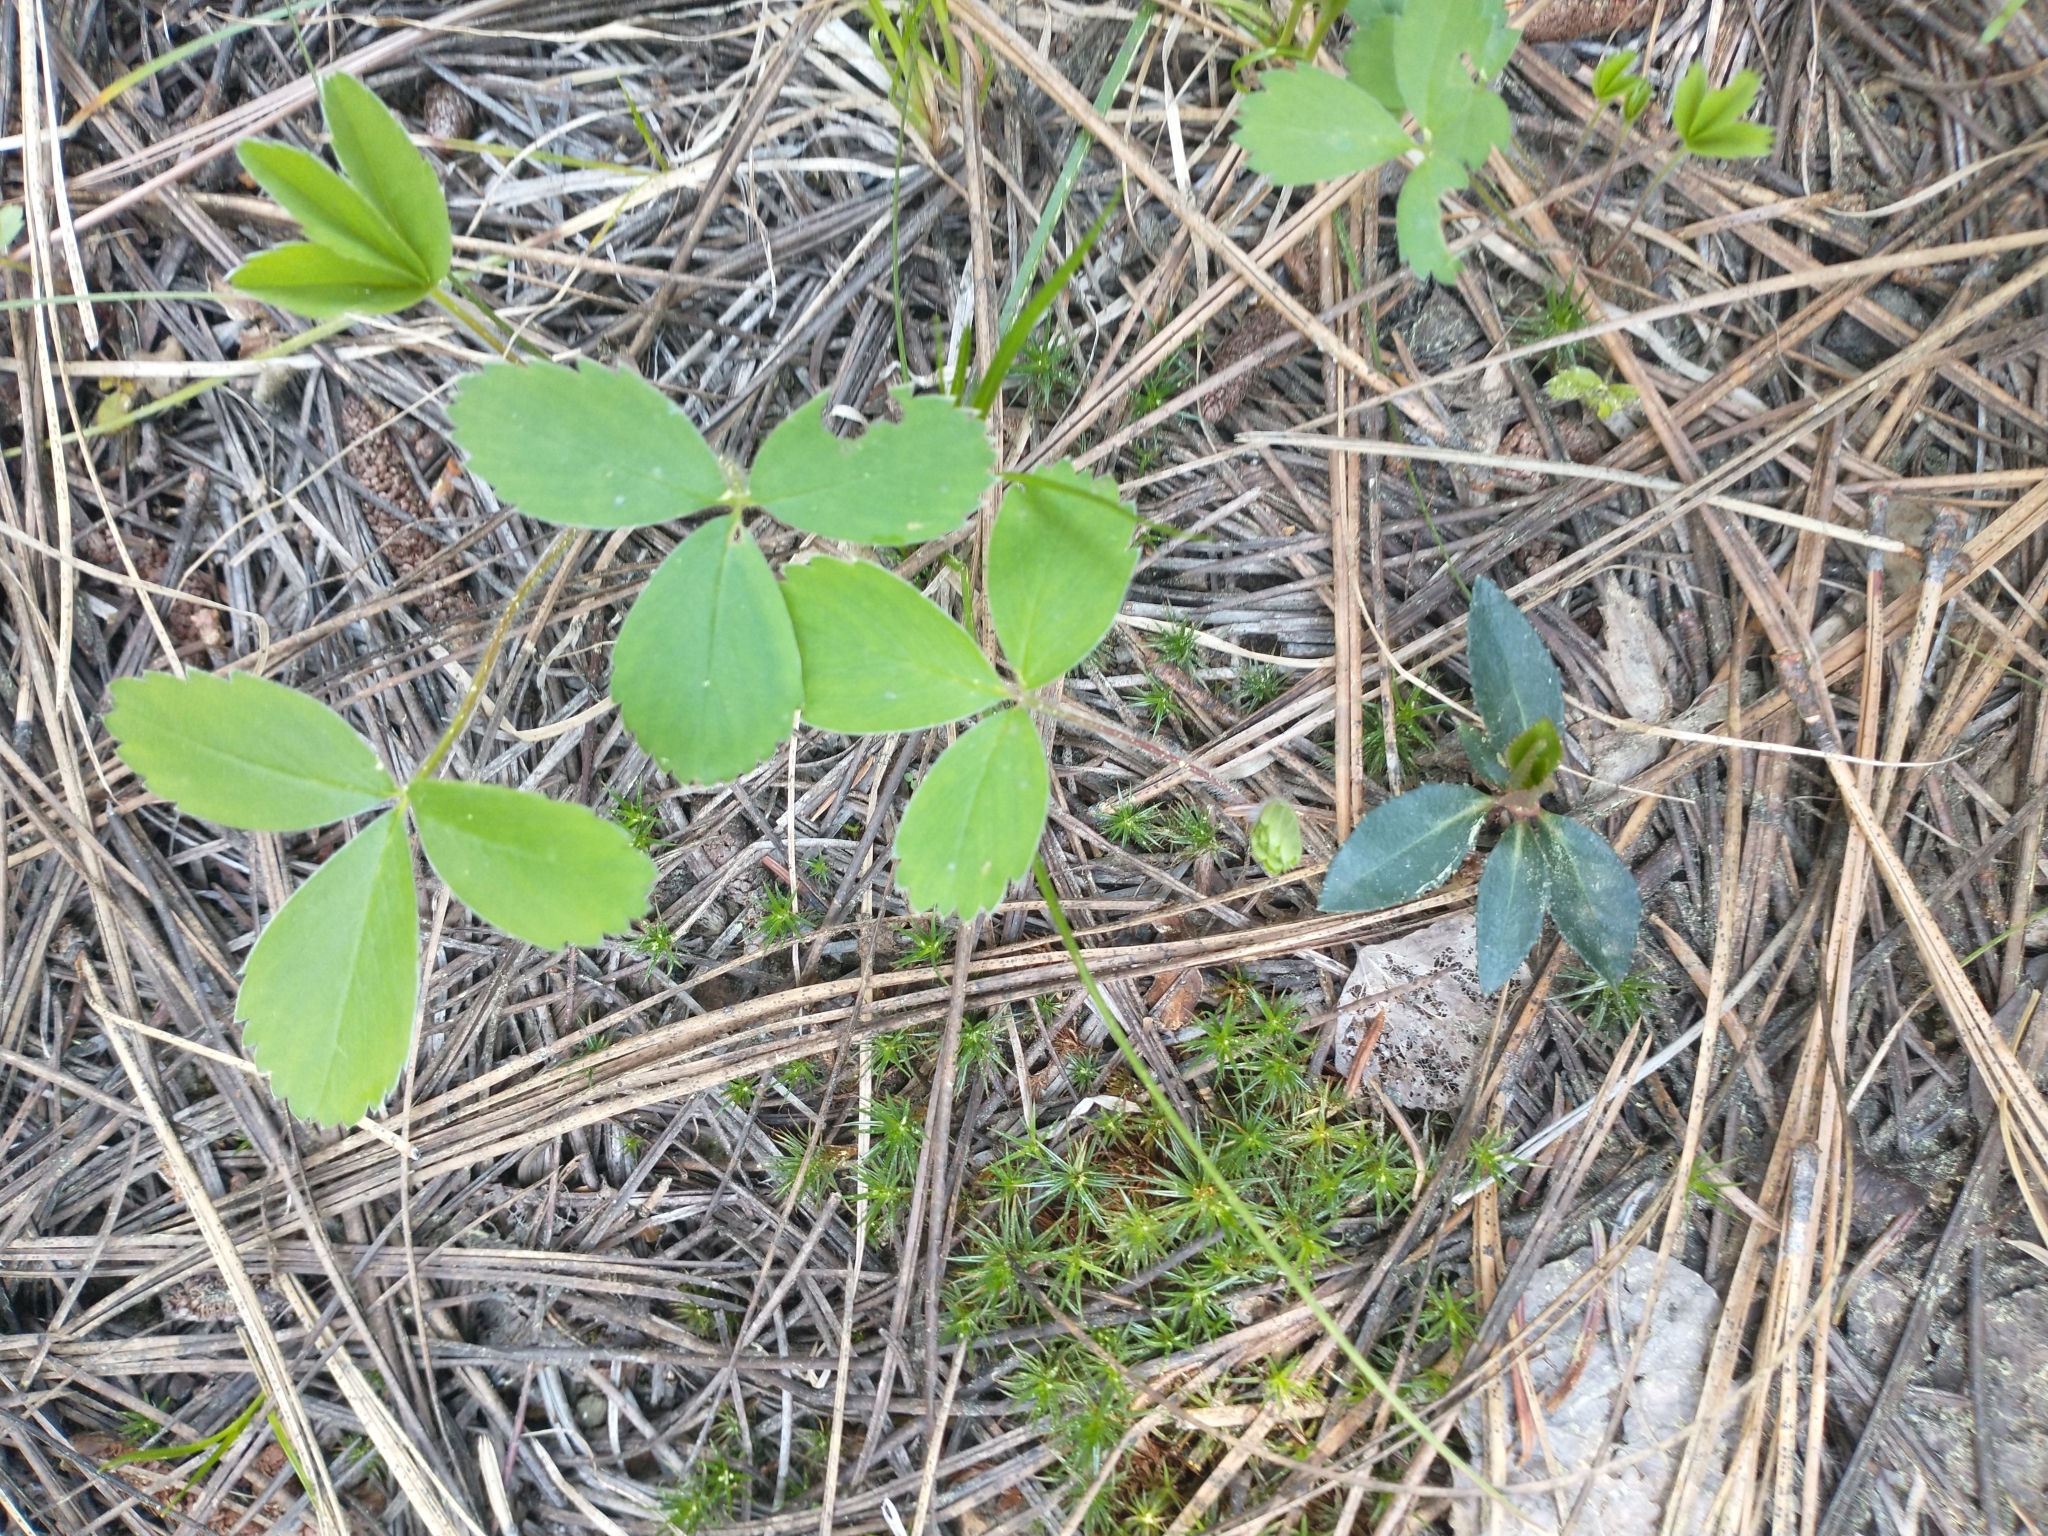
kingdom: Plantae
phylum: Tracheophyta
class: Magnoliopsida
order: Rosales
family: Rosaceae
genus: Fragaria
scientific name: Fragaria virginiana
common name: Thickleaved wild strawberry
